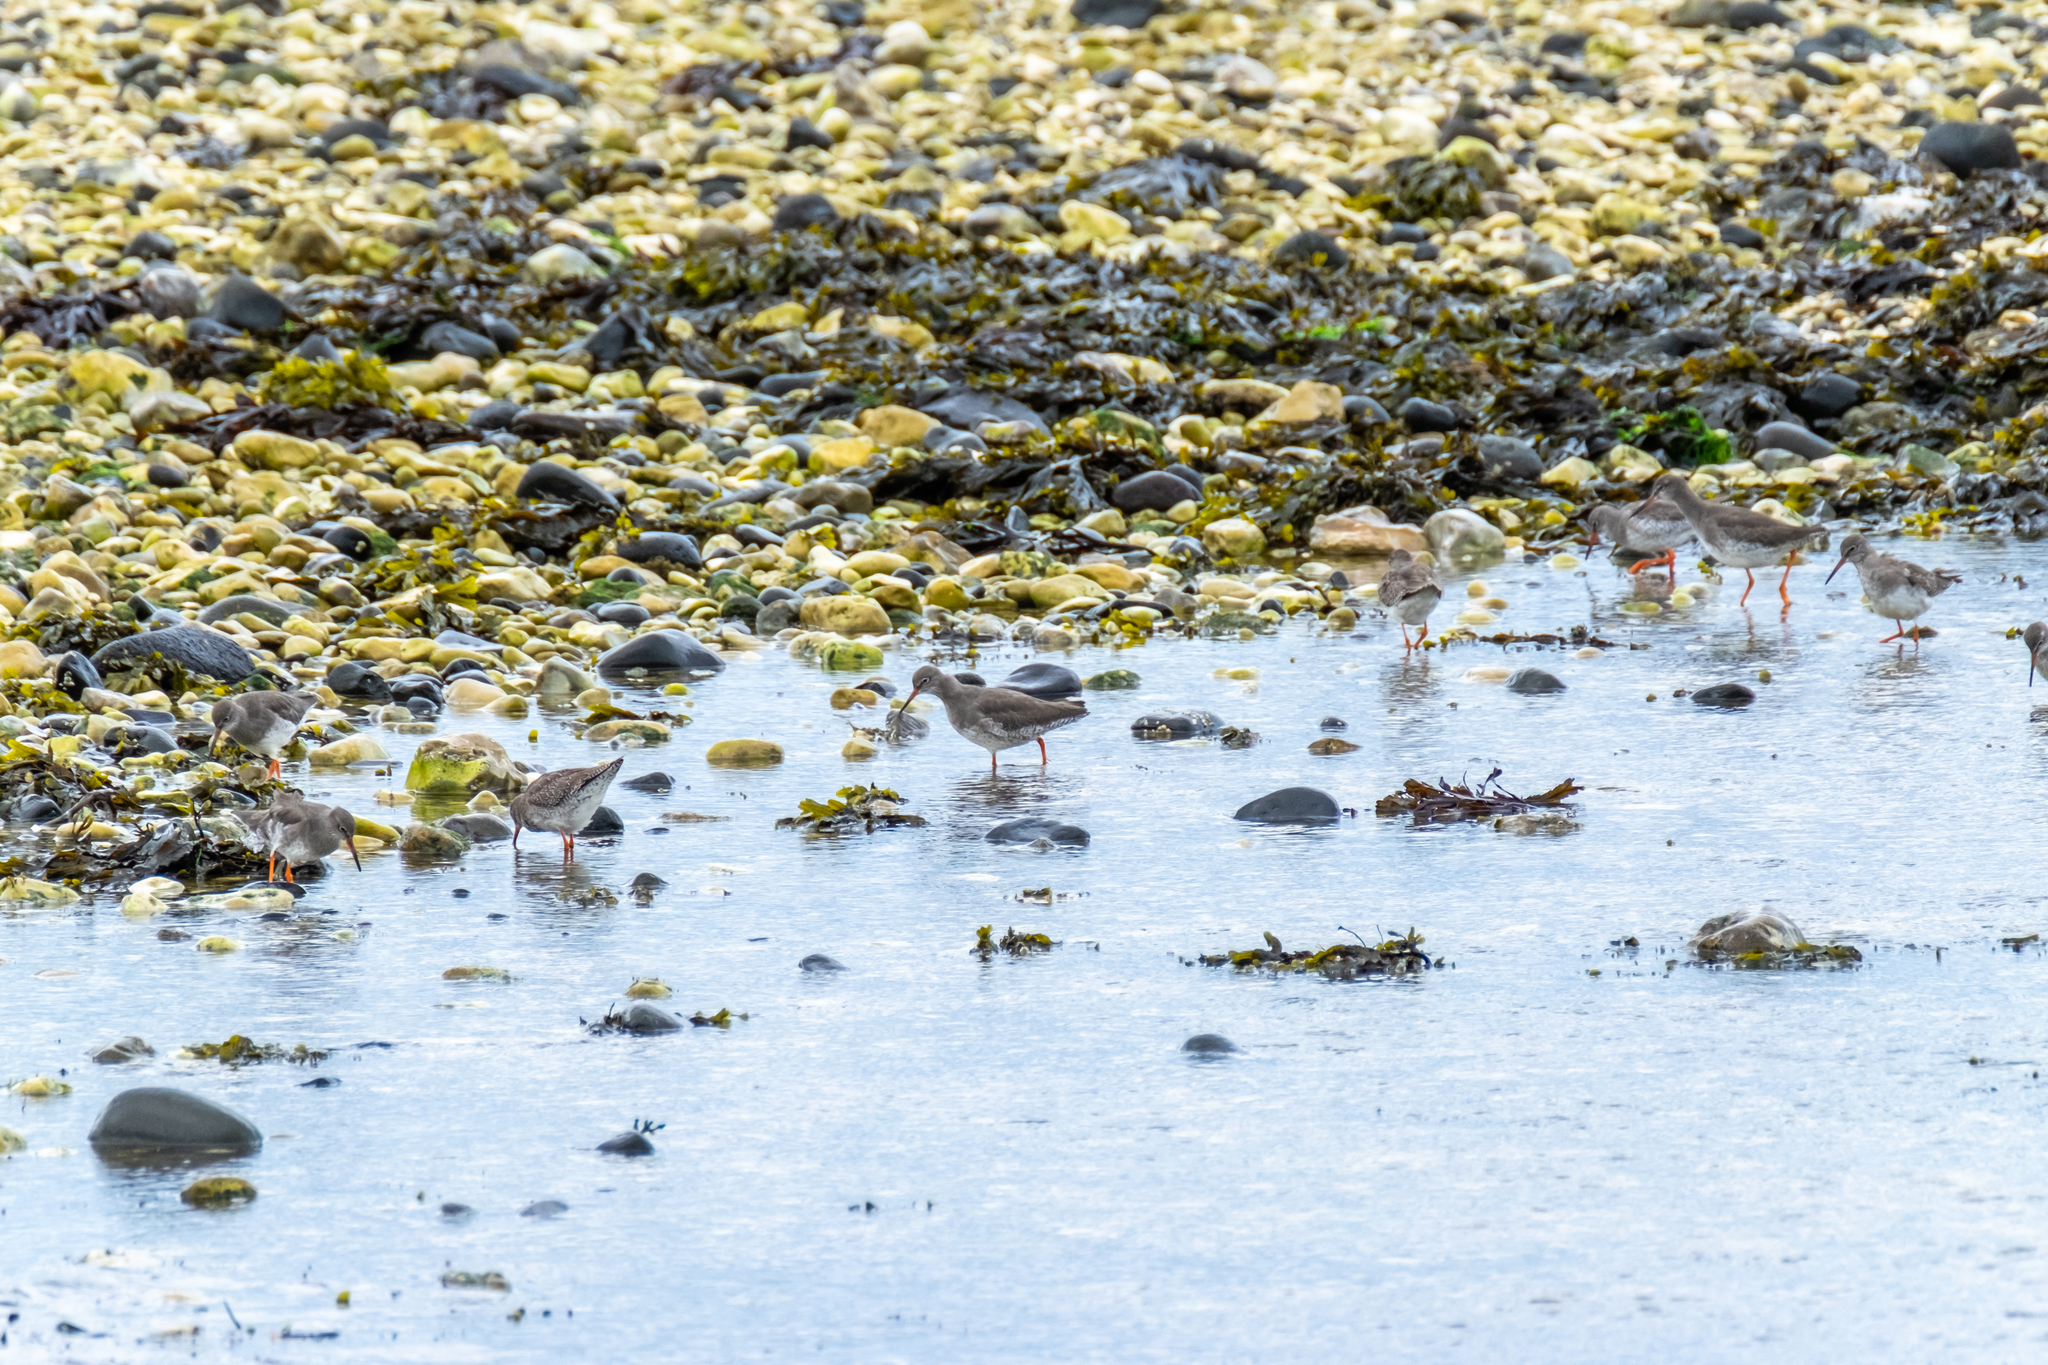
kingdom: Animalia
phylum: Chordata
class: Aves
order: Charadriiformes
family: Scolopacidae
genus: Tringa
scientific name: Tringa totanus
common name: Common redshank
